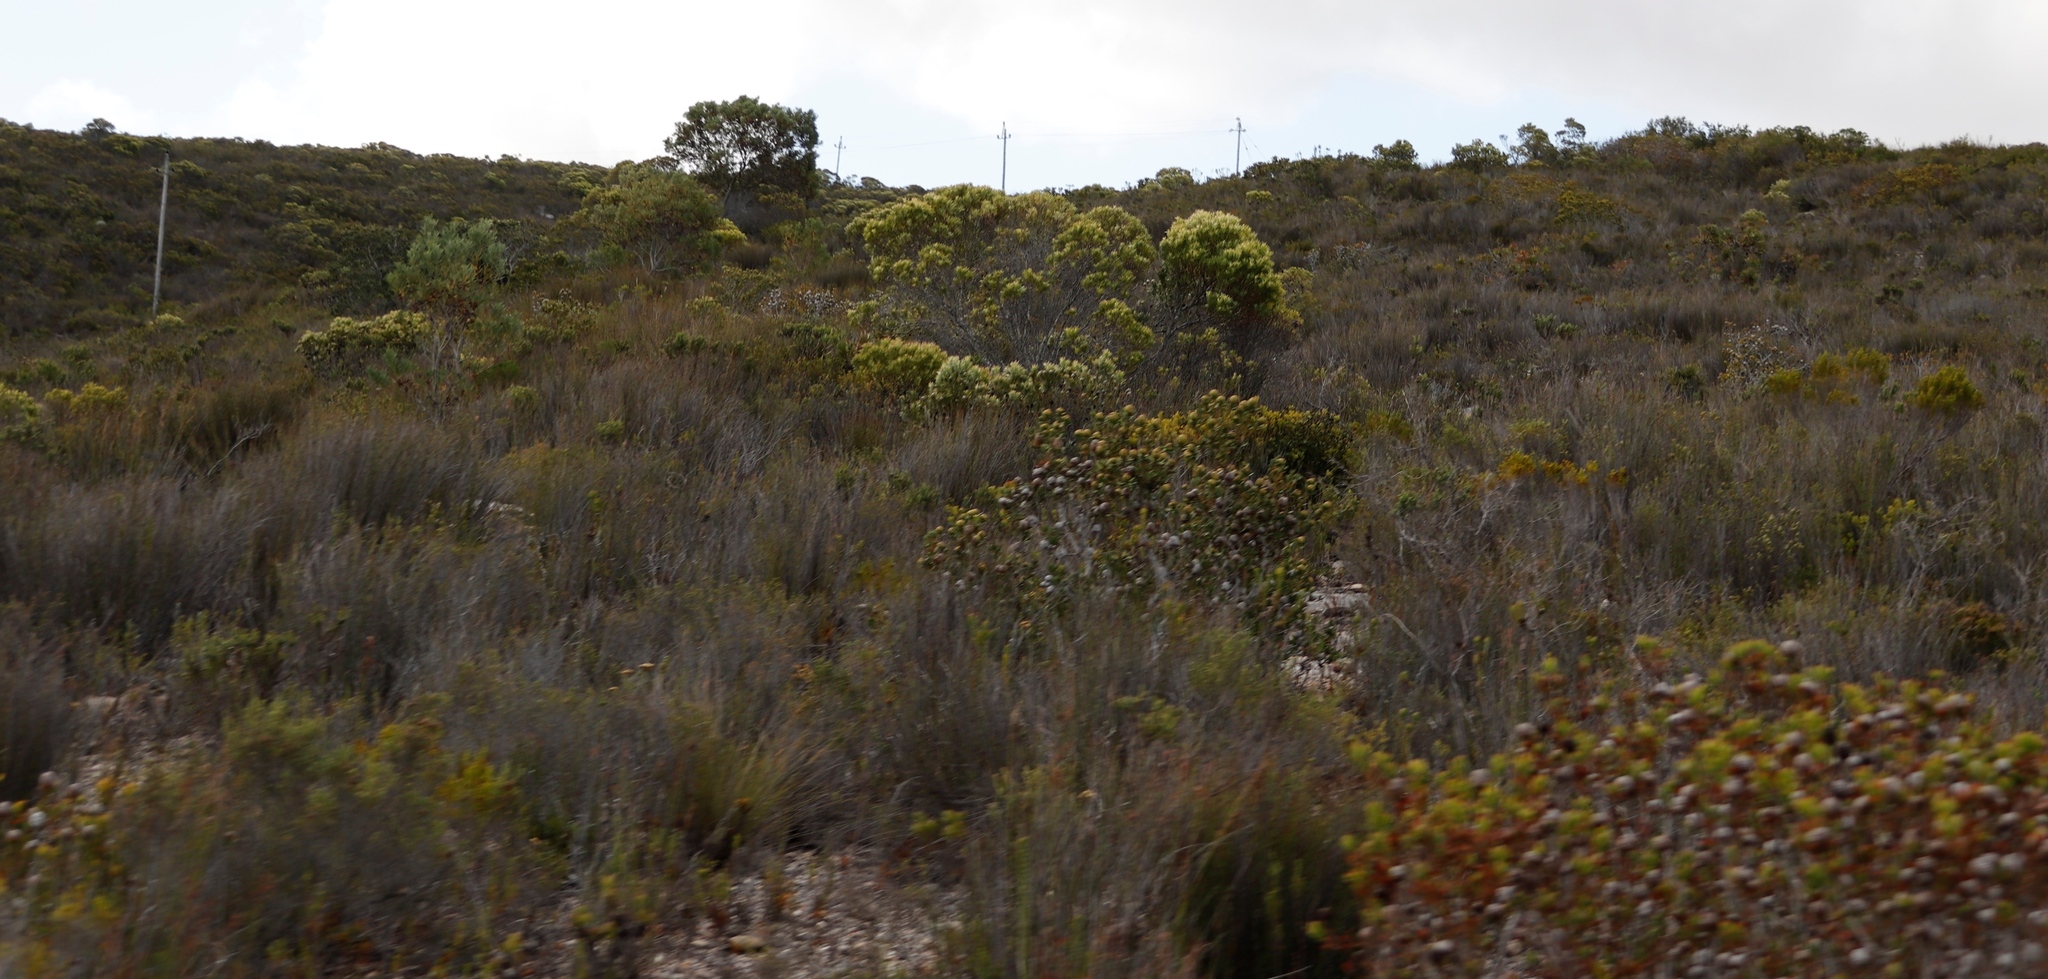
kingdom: Plantae
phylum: Tracheophyta
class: Magnoliopsida
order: Proteales
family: Proteaceae
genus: Leucadendron
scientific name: Leucadendron muirii
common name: Silver-ball conebush
